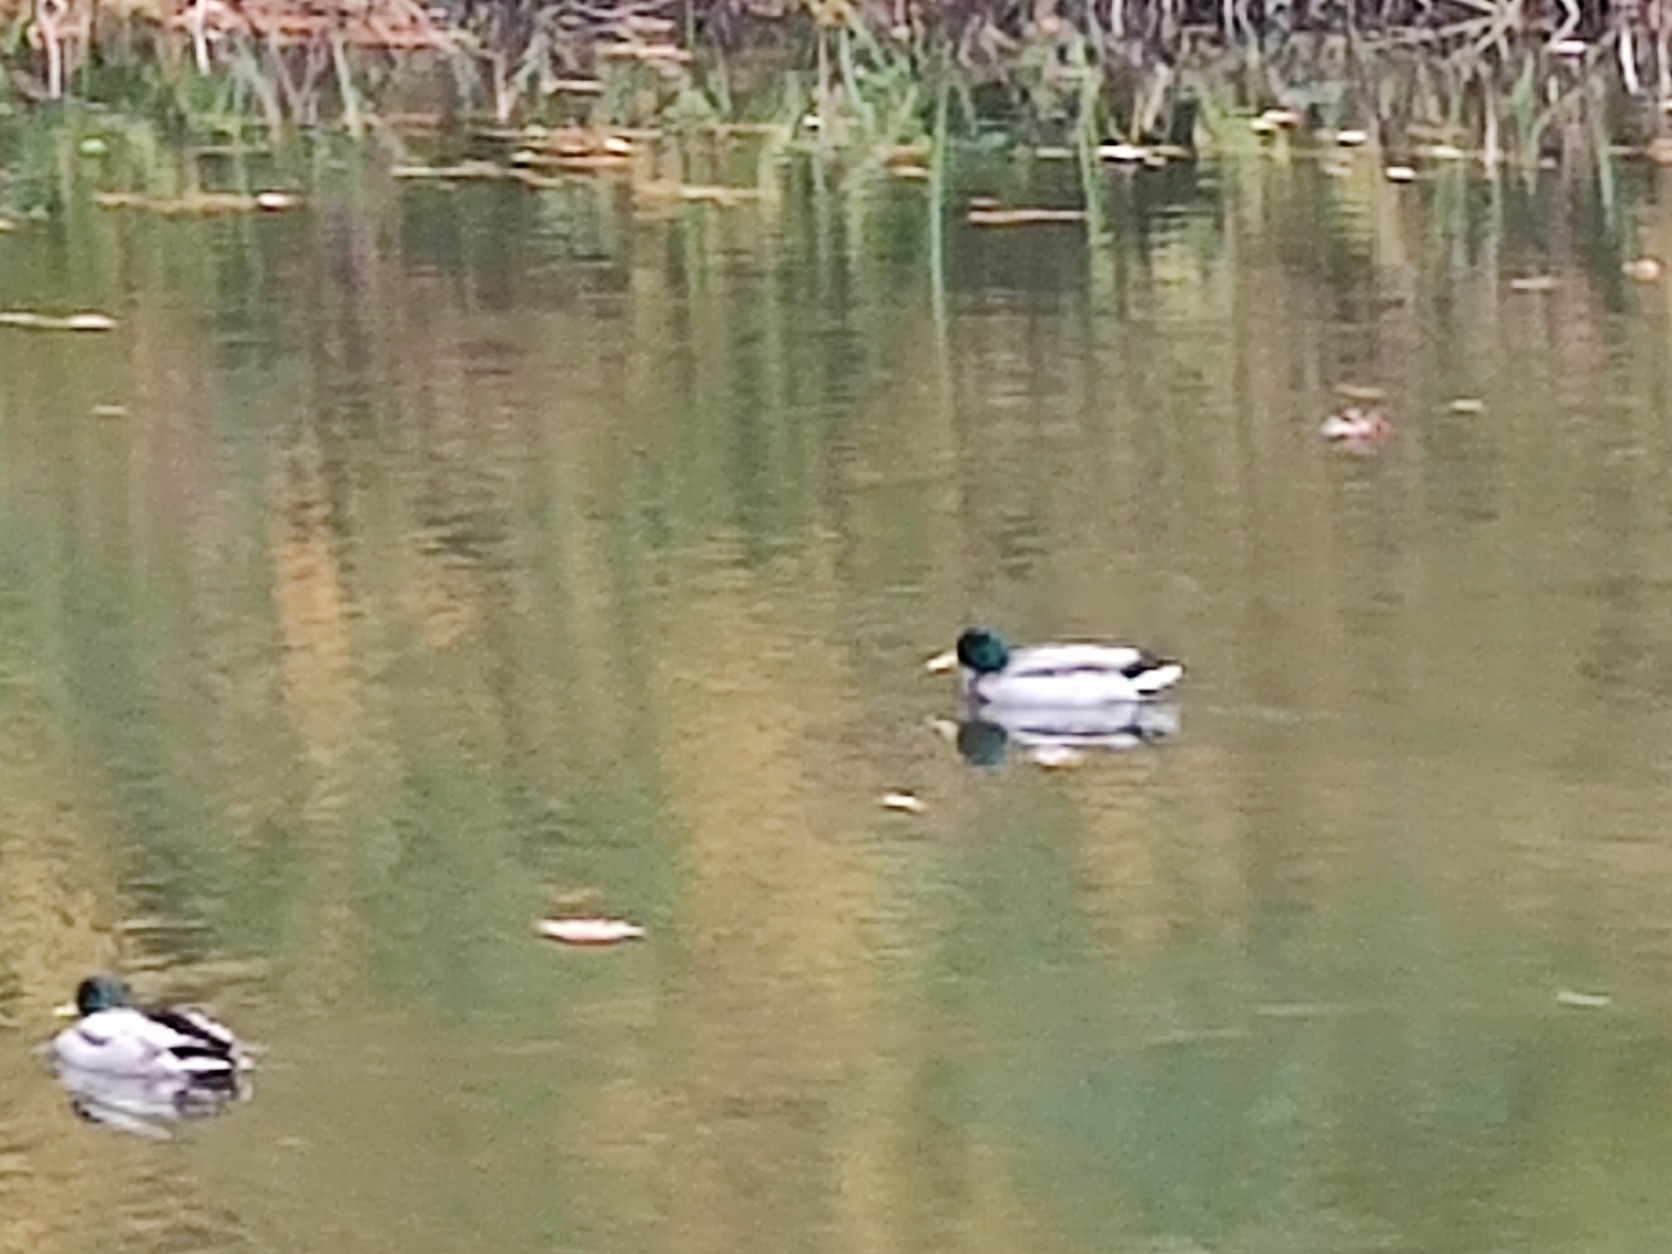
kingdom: Animalia
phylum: Chordata
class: Aves
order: Anseriformes
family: Anatidae
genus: Anas
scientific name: Anas platyrhynchos
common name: Mallard
